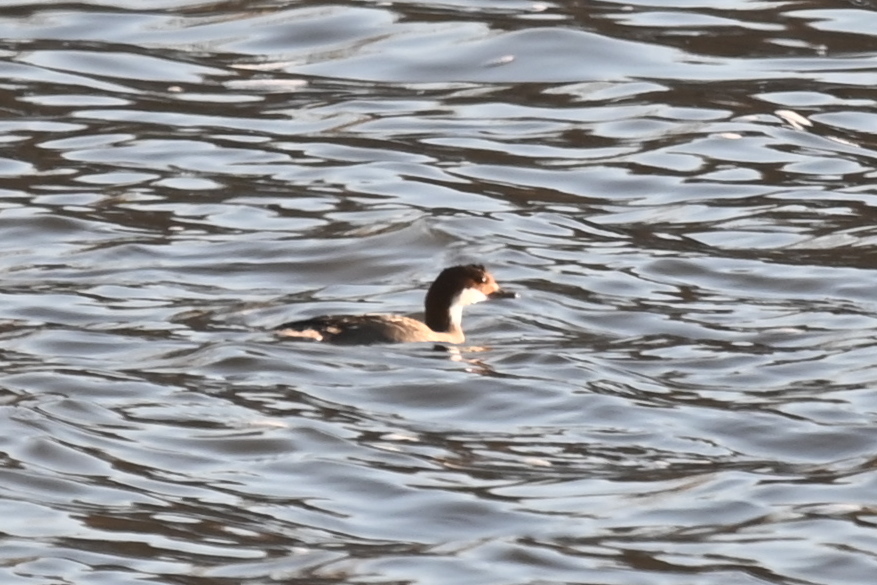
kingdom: Animalia
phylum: Chordata
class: Aves
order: Anseriformes
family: Anatidae
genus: Mergellus
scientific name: Mergellus albellus
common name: Smew
